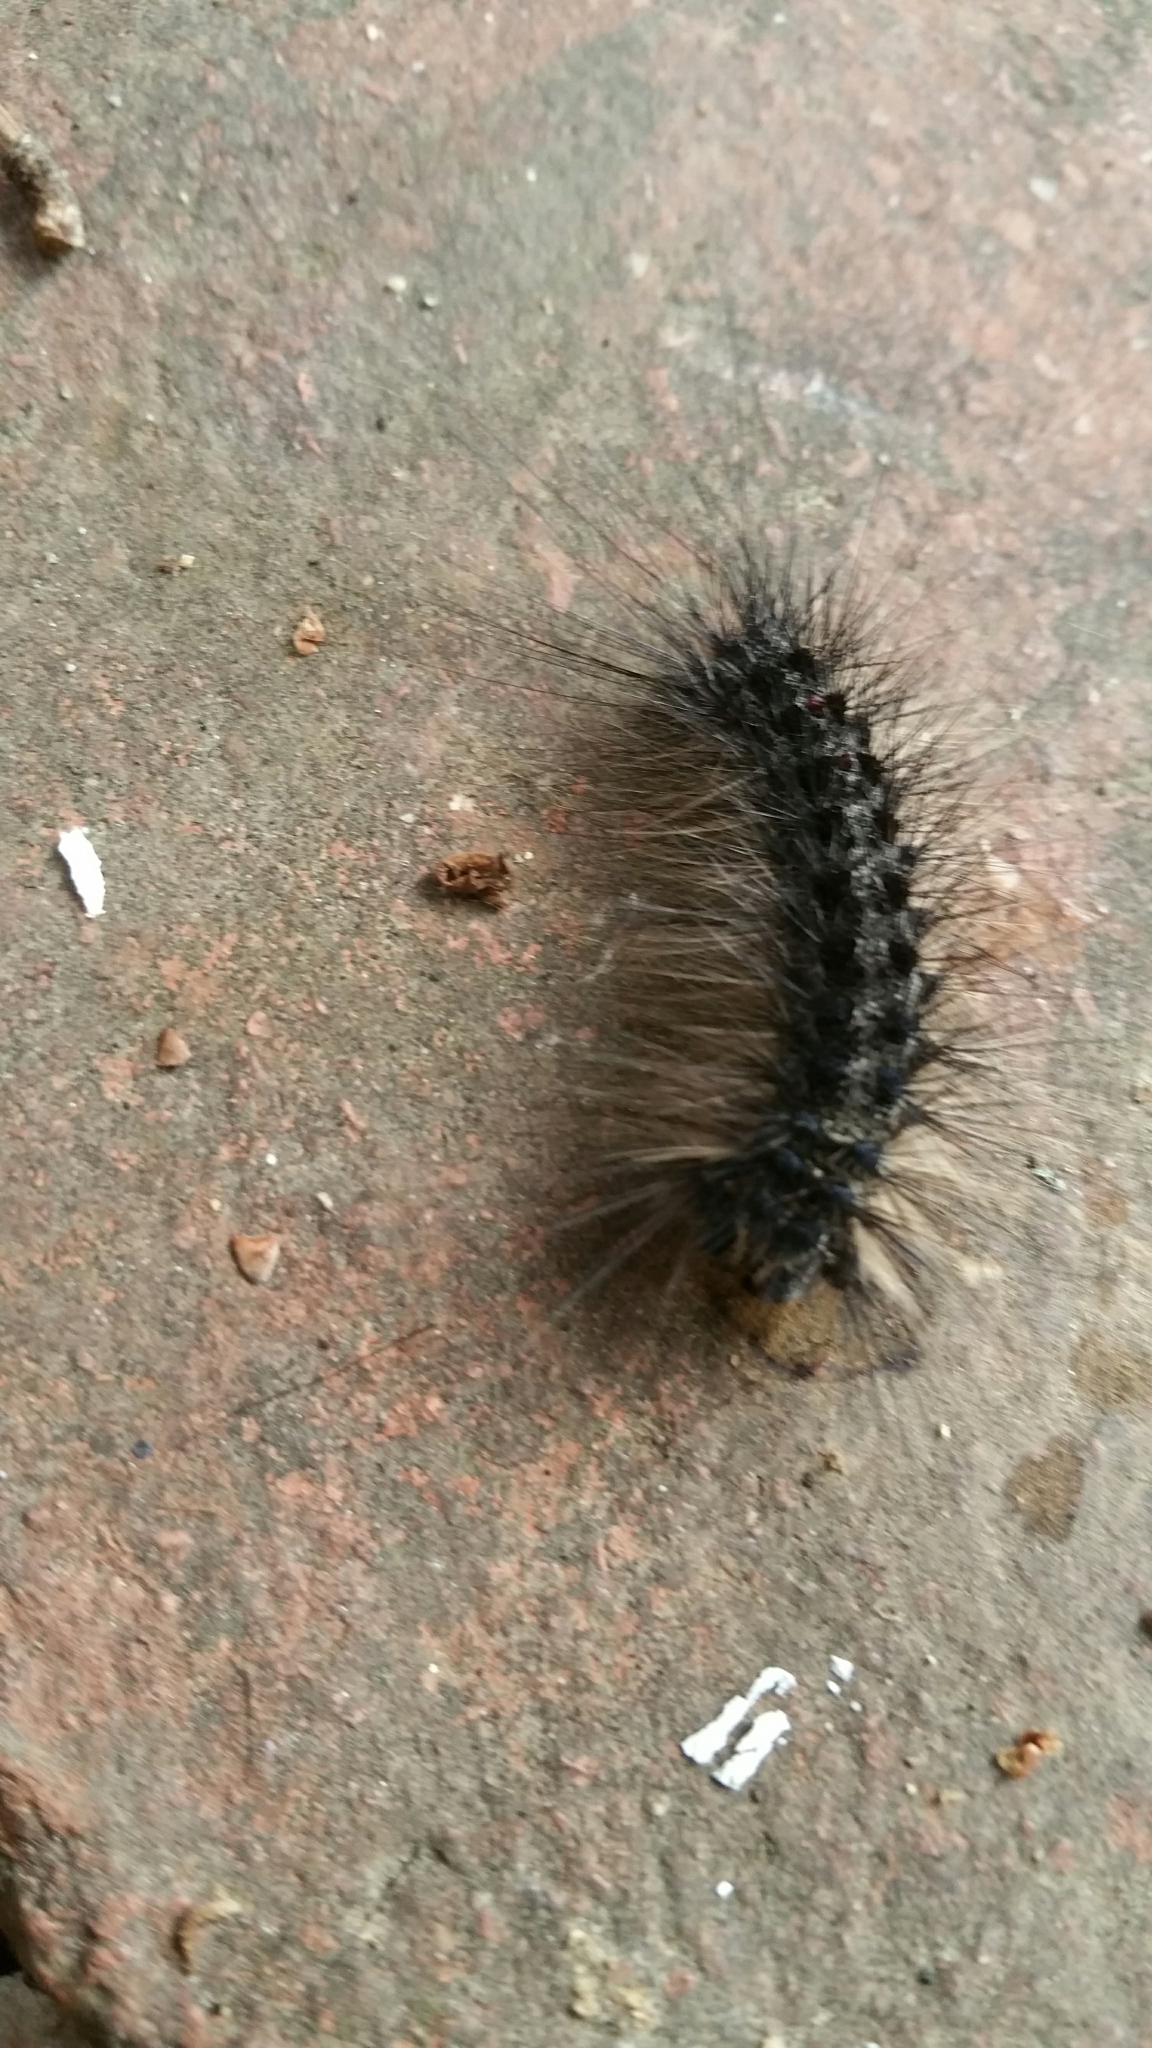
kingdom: Animalia
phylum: Arthropoda
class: Insecta
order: Lepidoptera
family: Erebidae
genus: Lymantria
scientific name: Lymantria dispar
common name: Gypsy moth
